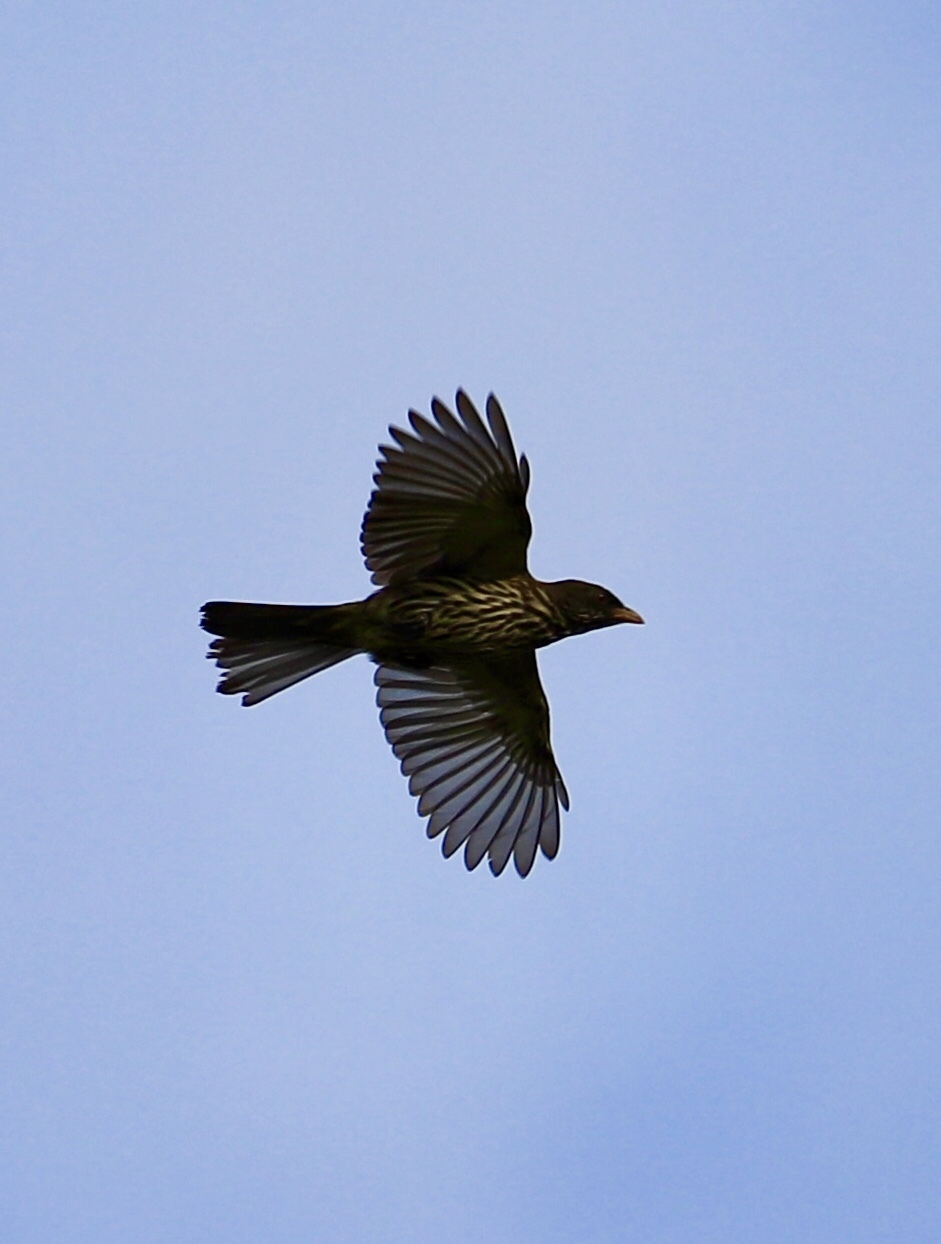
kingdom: Animalia
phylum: Chordata
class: Aves
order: Passeriformes
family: Dulidae
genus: Dulus
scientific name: Dulus dominicus
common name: Palmchat
